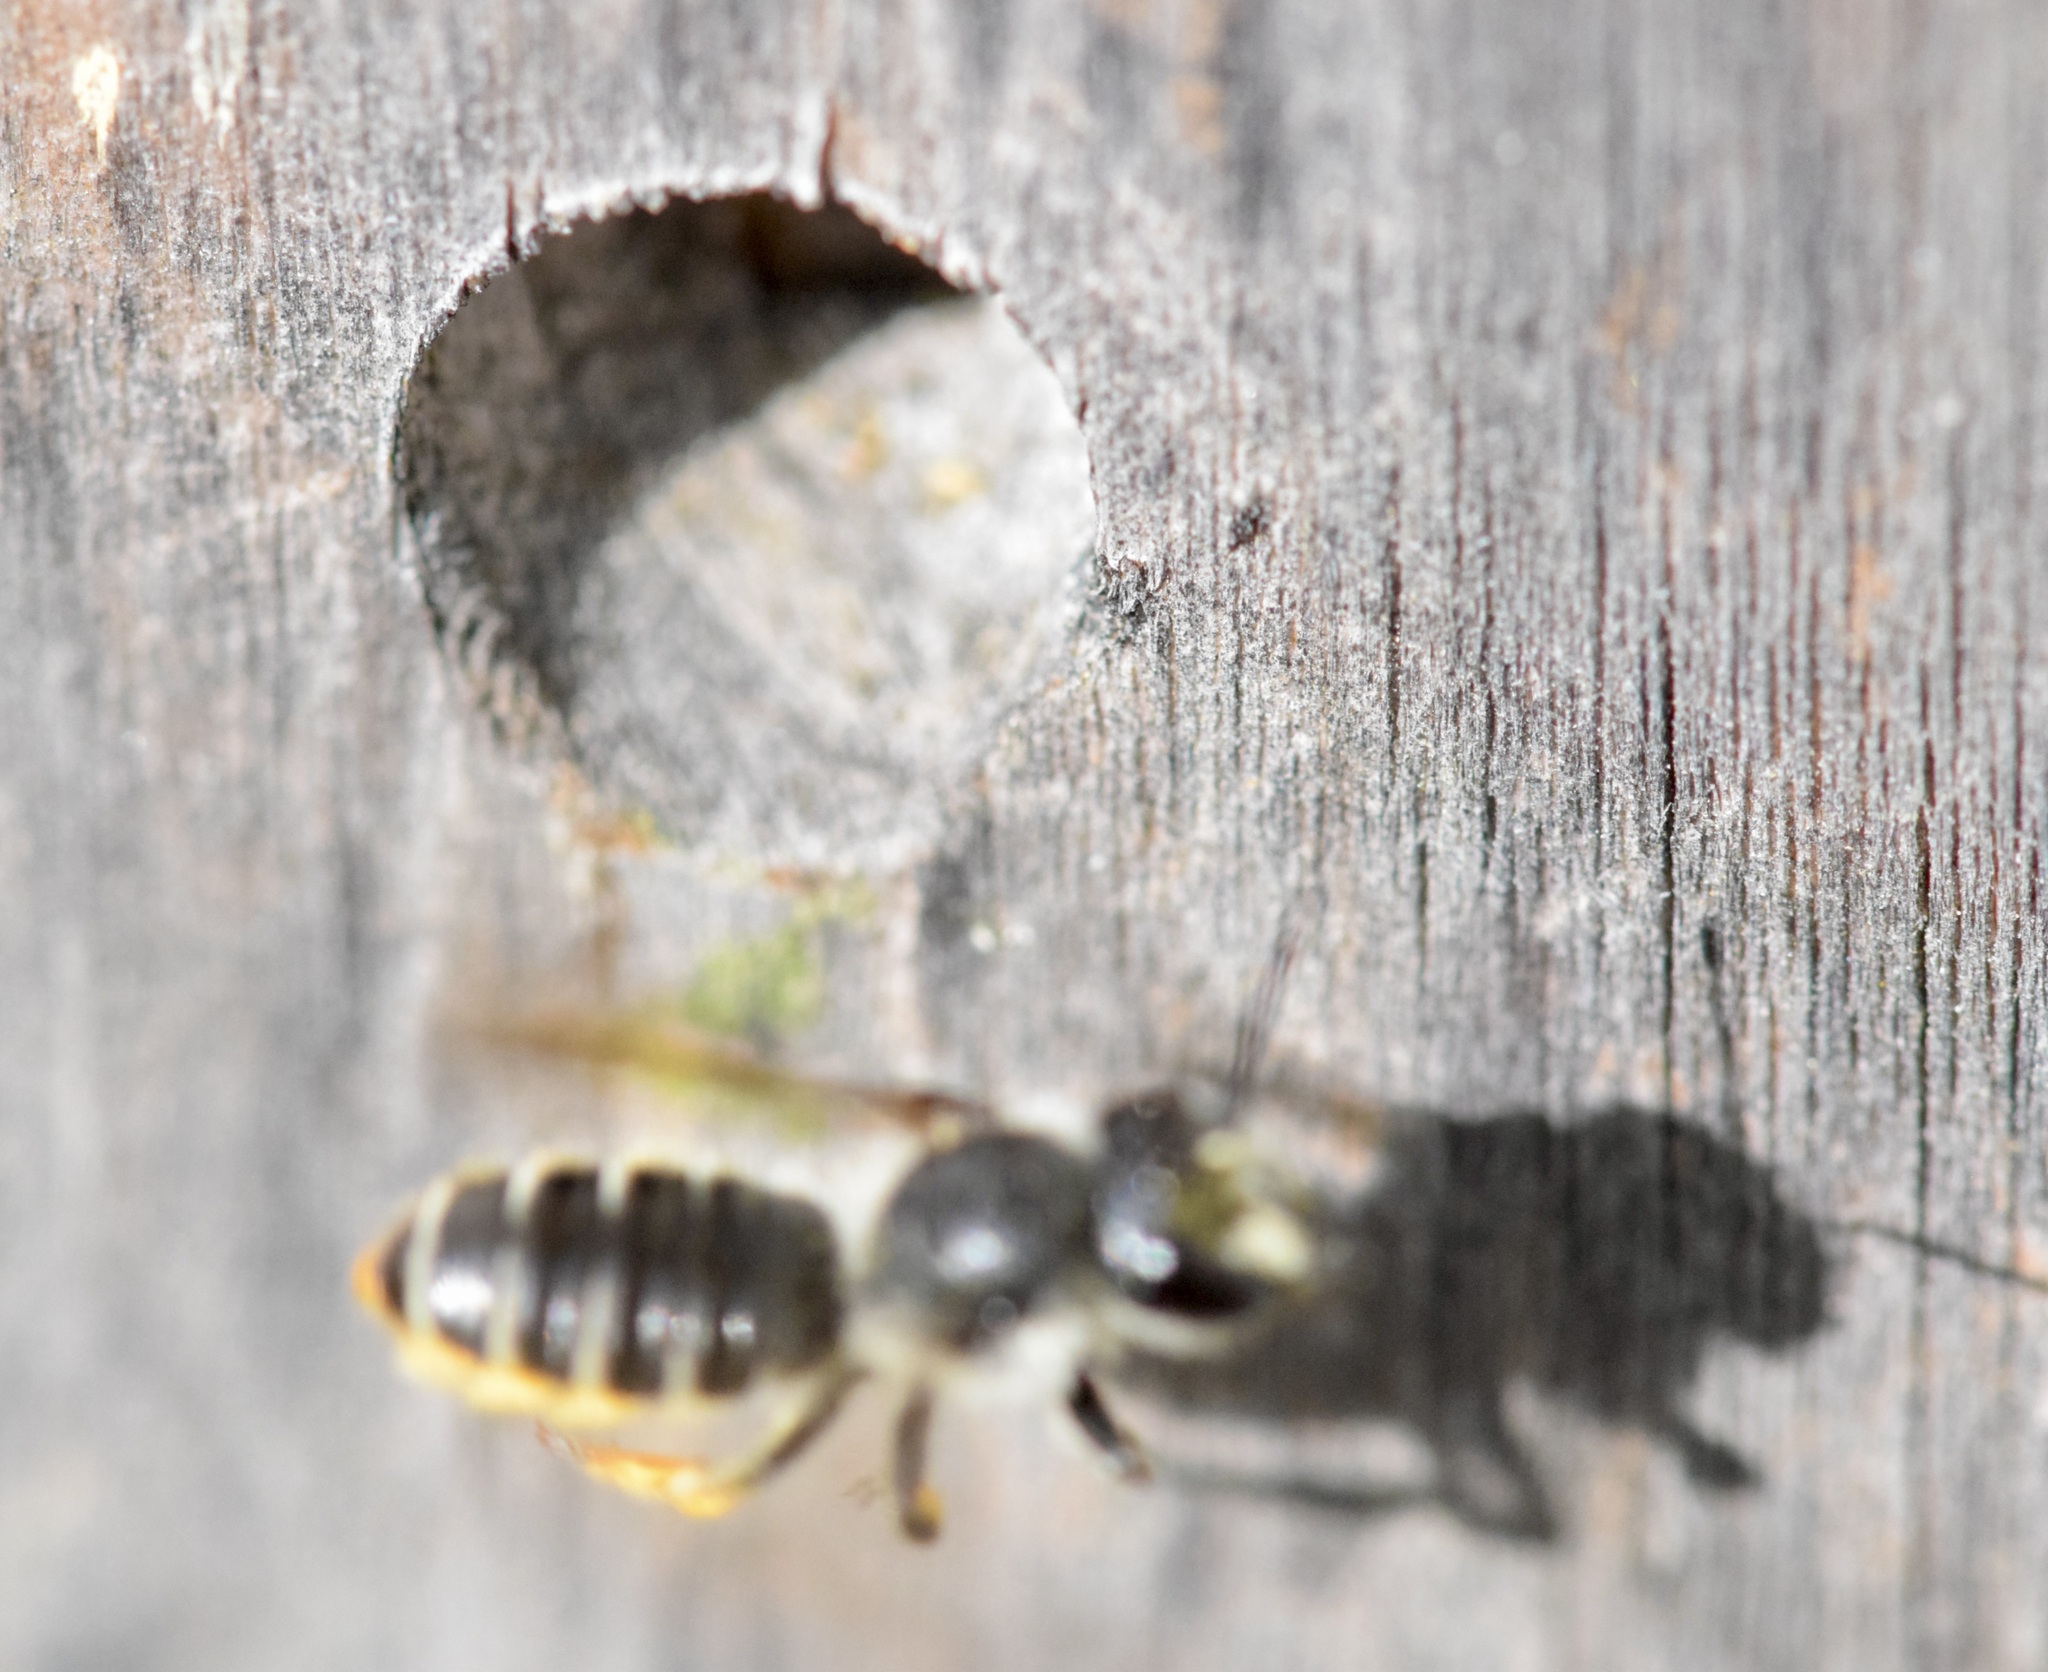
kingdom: Animalia
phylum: Arthropoda
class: Insecta
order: Hymenoptera
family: Megachilidae
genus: Megachile
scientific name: Megachile relativa
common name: Golden-tailed leafcutter
